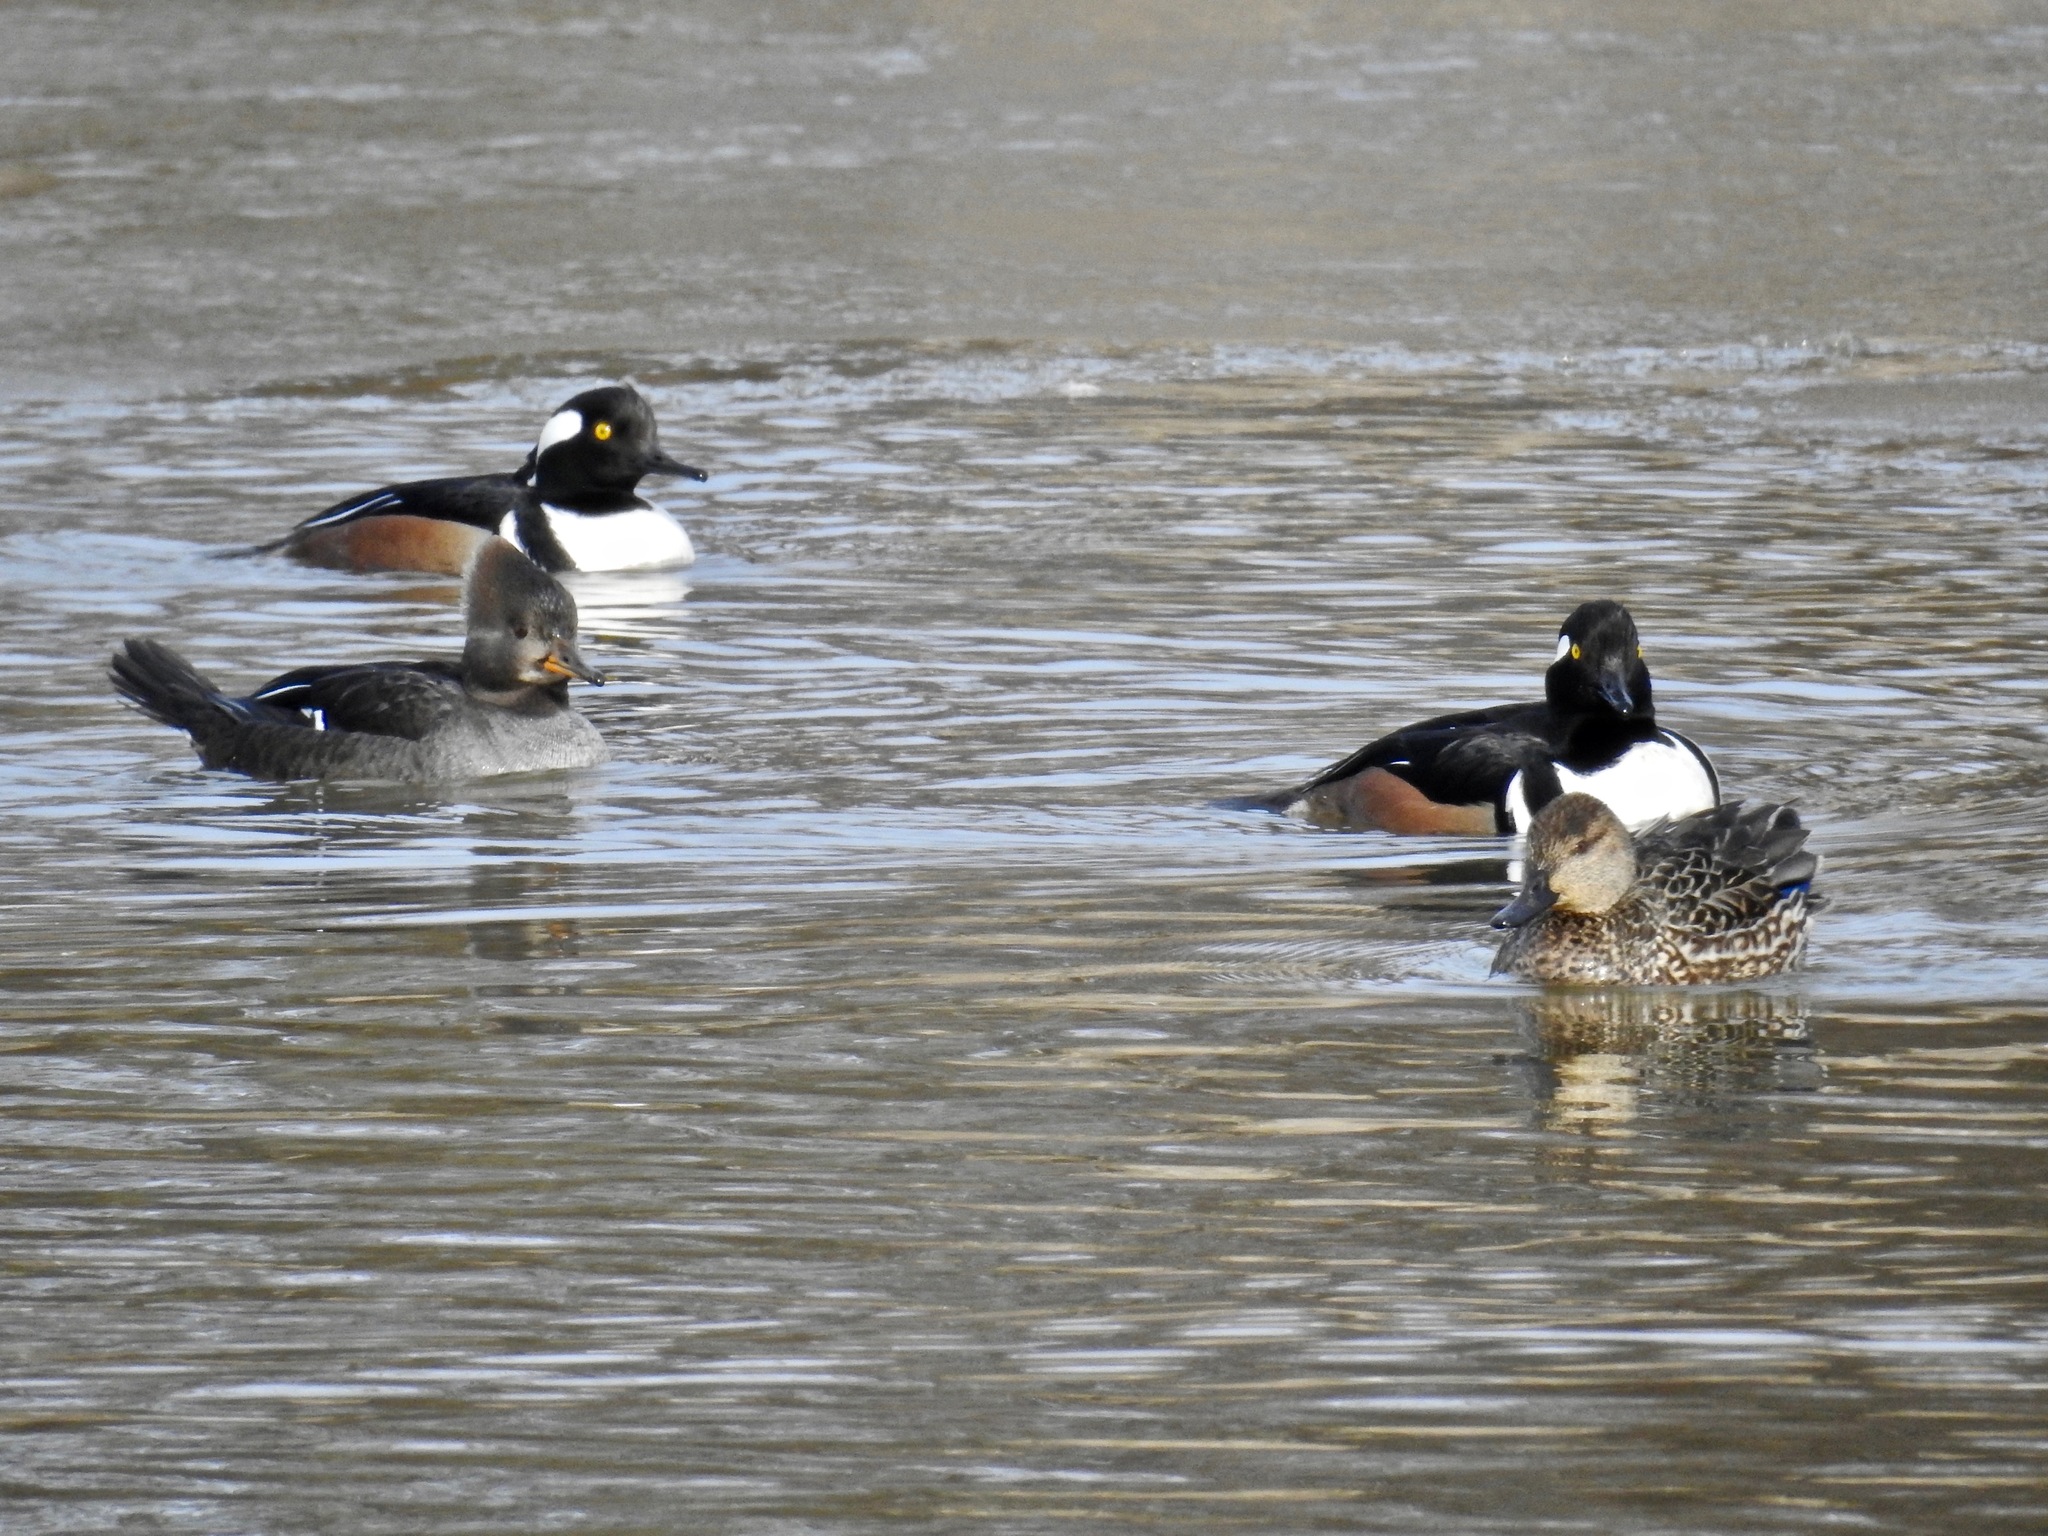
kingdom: Animalia
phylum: Chordata
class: Aves
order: Anseriformes
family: Anatidae
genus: Lophodytes
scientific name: Lophodytes cucullatus
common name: Hooded merganser
